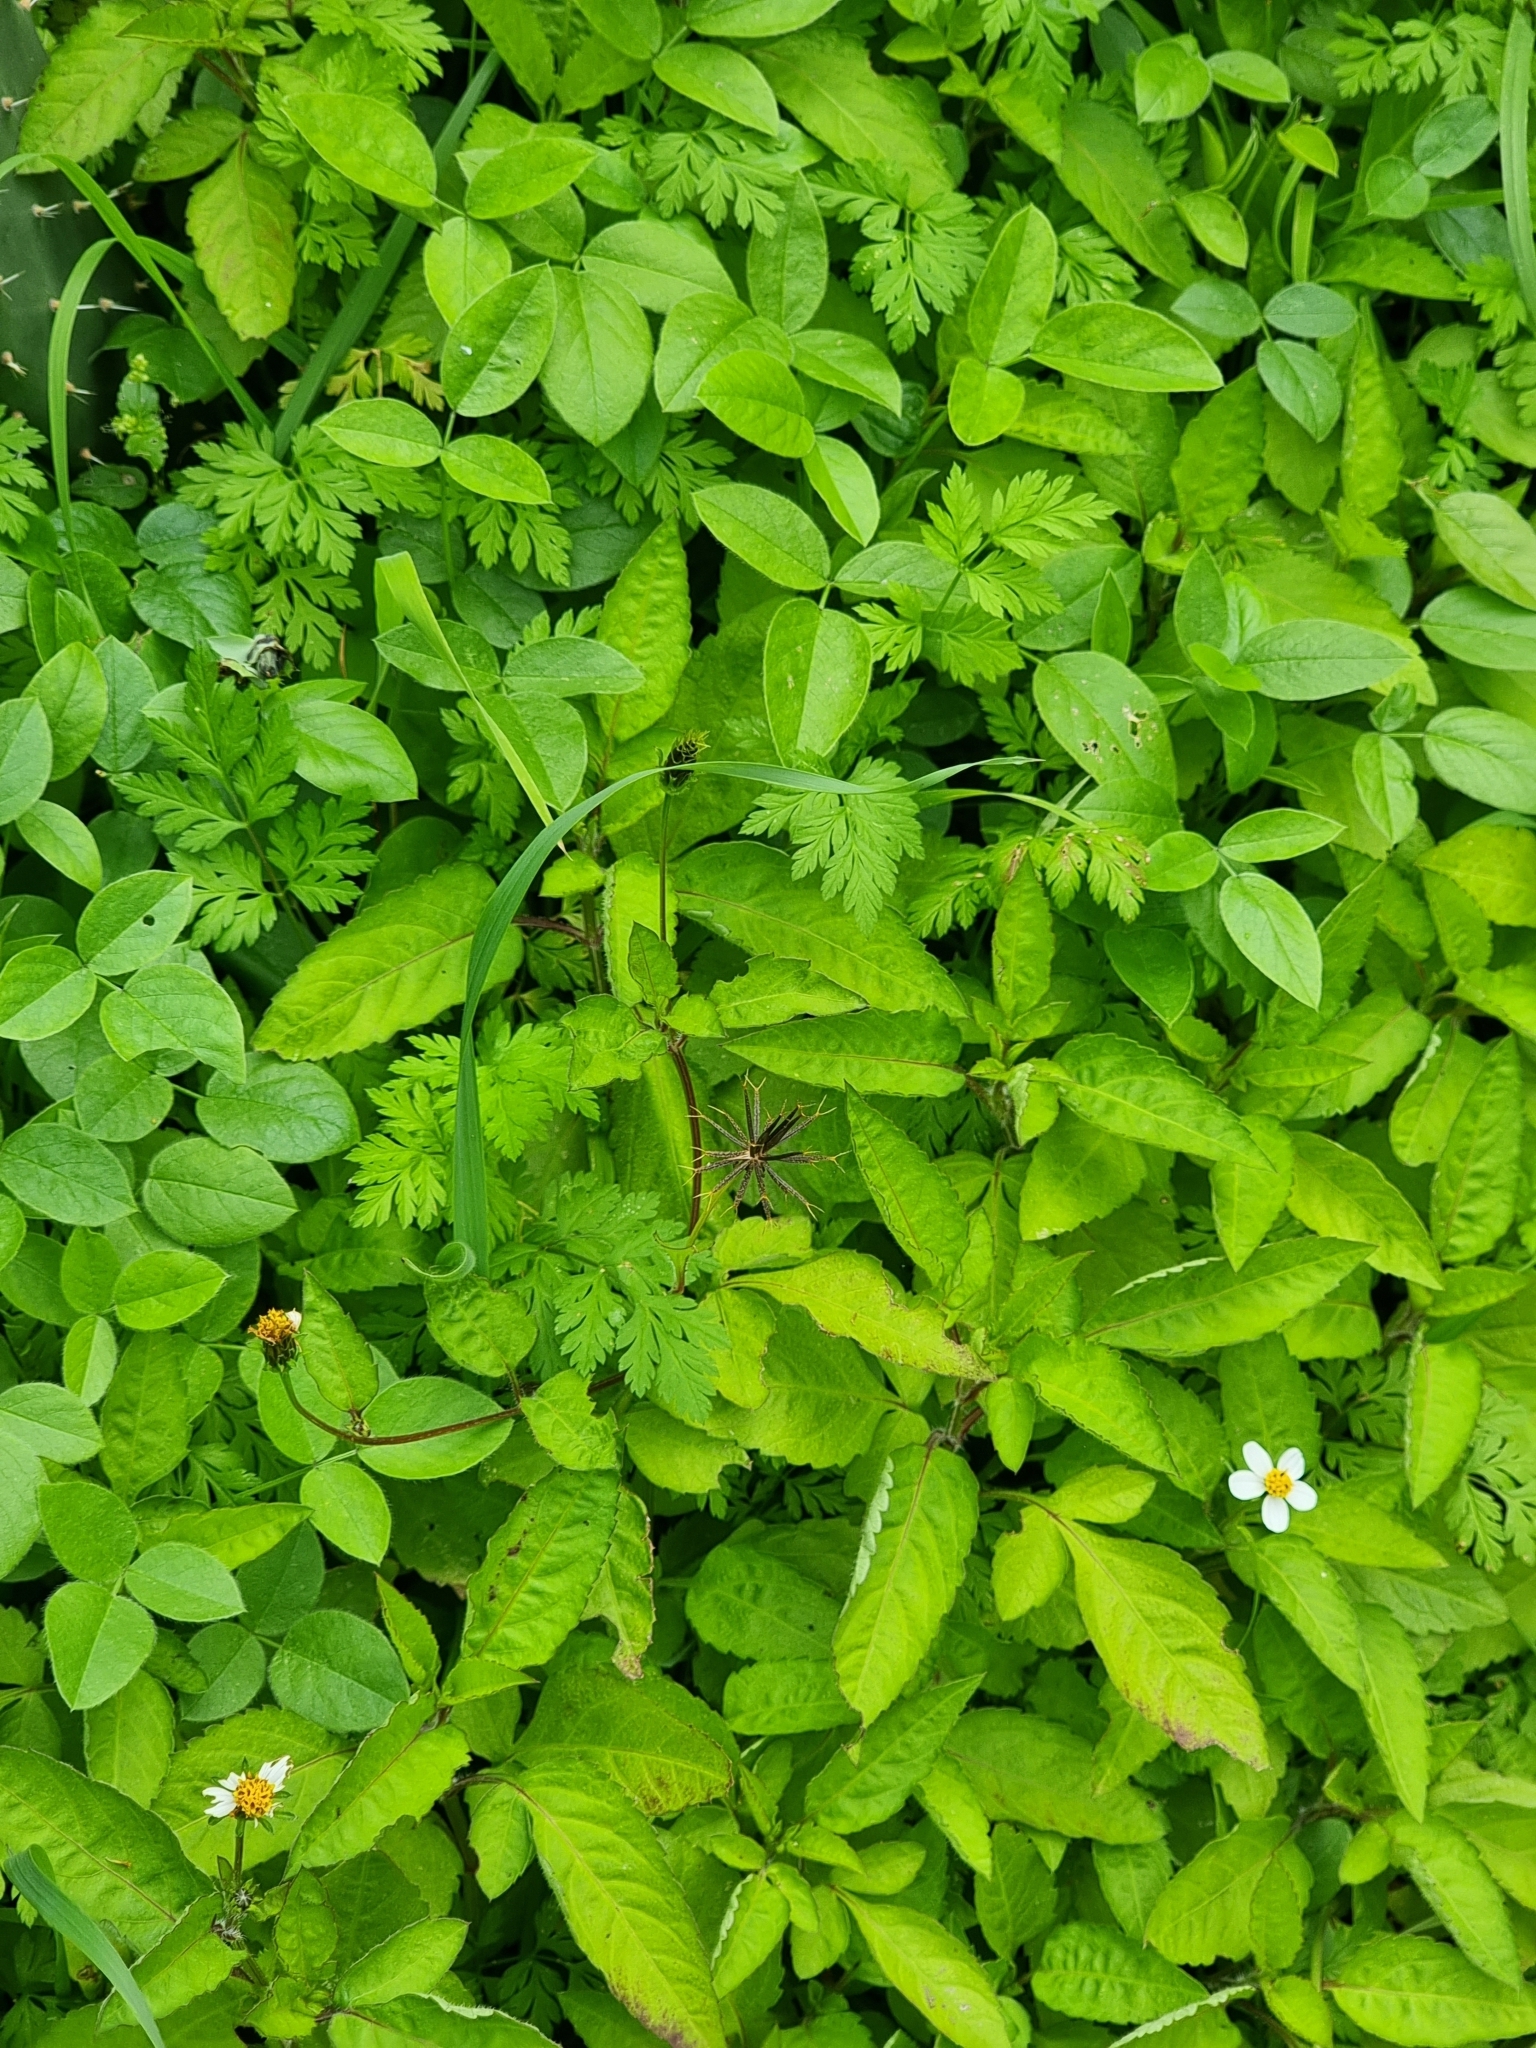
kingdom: Plantae
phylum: Tracheophyta
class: Magnoliopsida
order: Asterales
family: Asteraceae
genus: Bidens
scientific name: Bidens pilosa
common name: Black-jack
